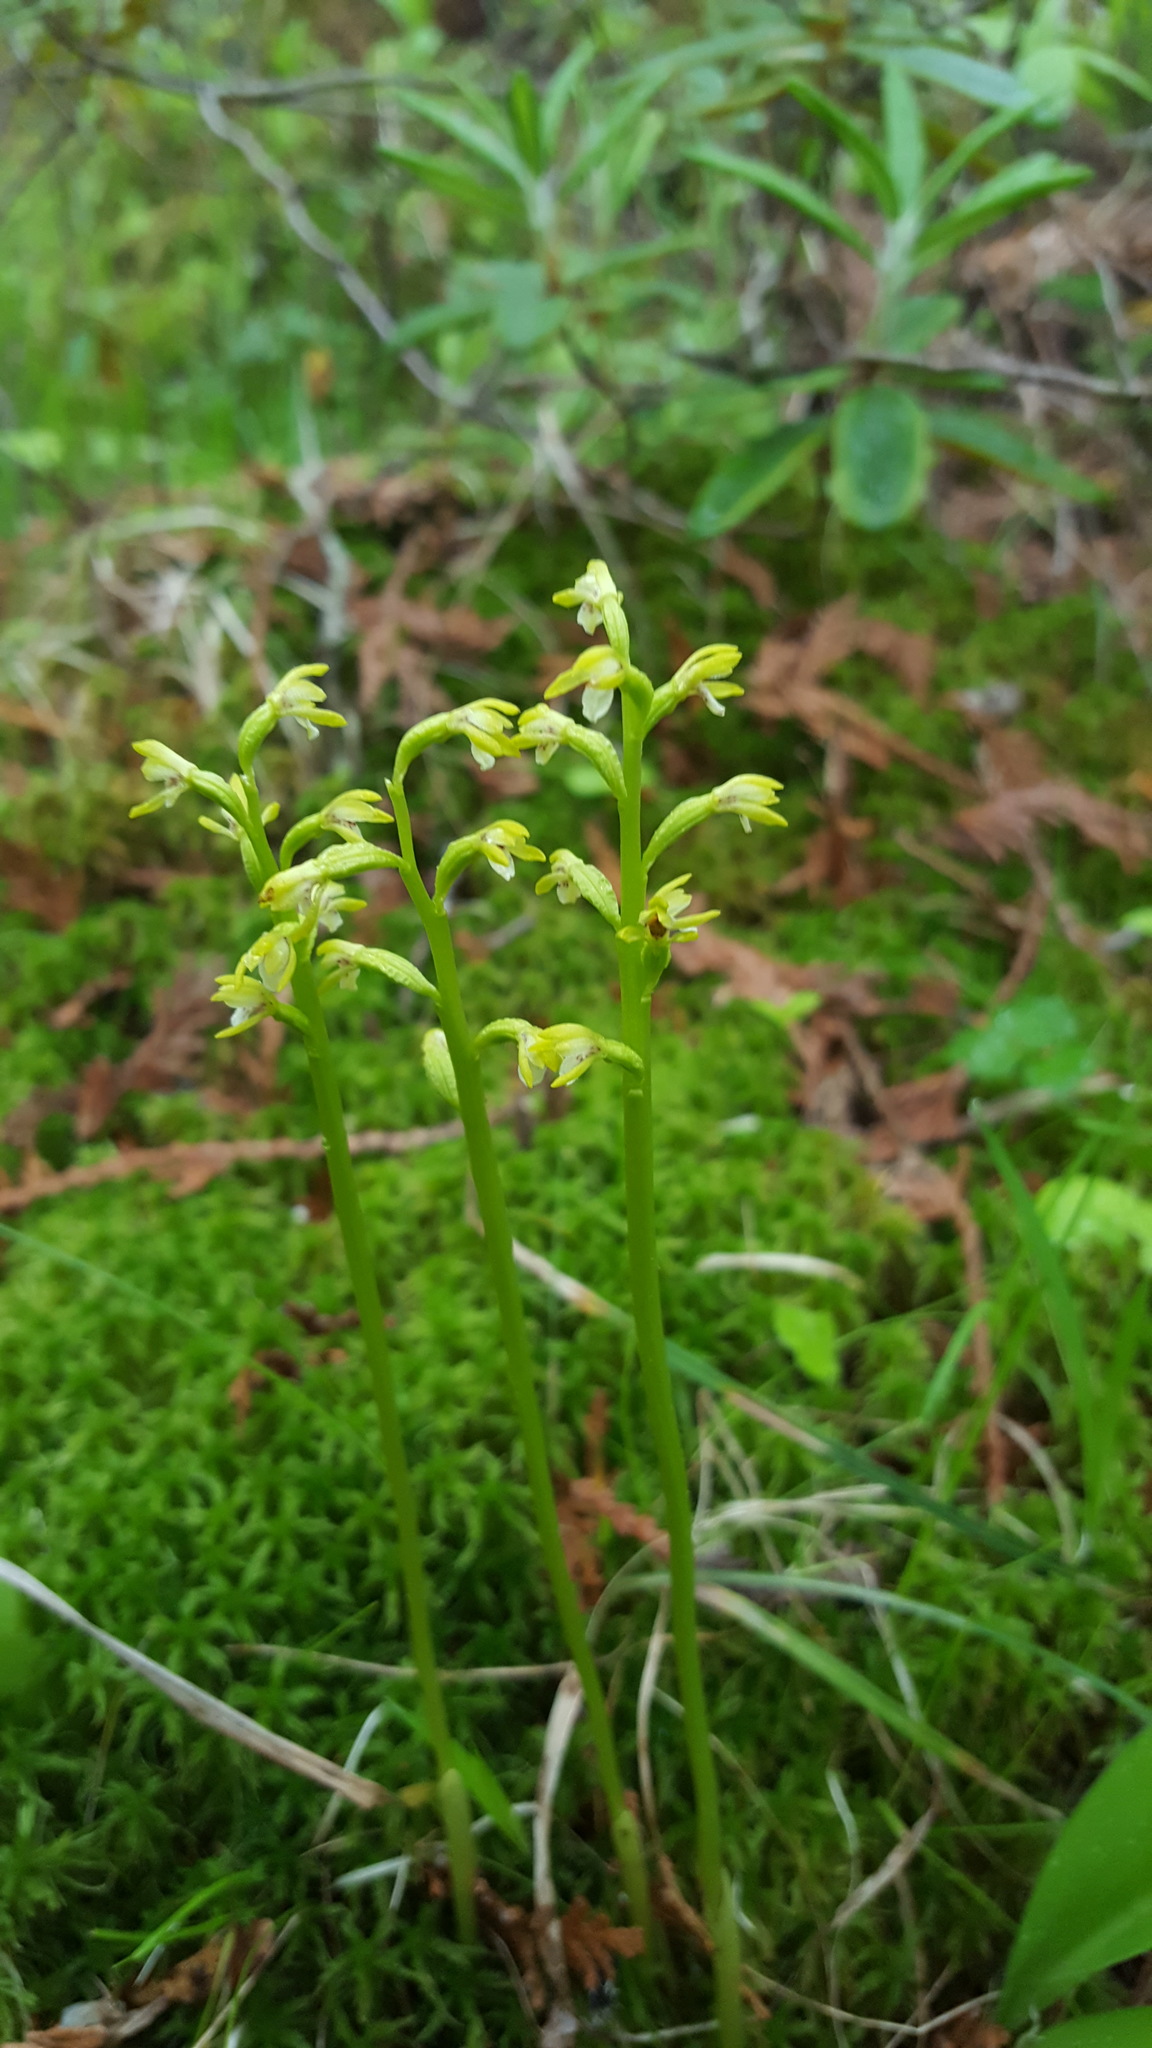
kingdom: Plantae
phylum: Tracheophyta
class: Liliopsida
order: Asparagales
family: Orchidaceae
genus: Corallorhiza
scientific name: Corallorhiza trifida
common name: Yellow coralroot
